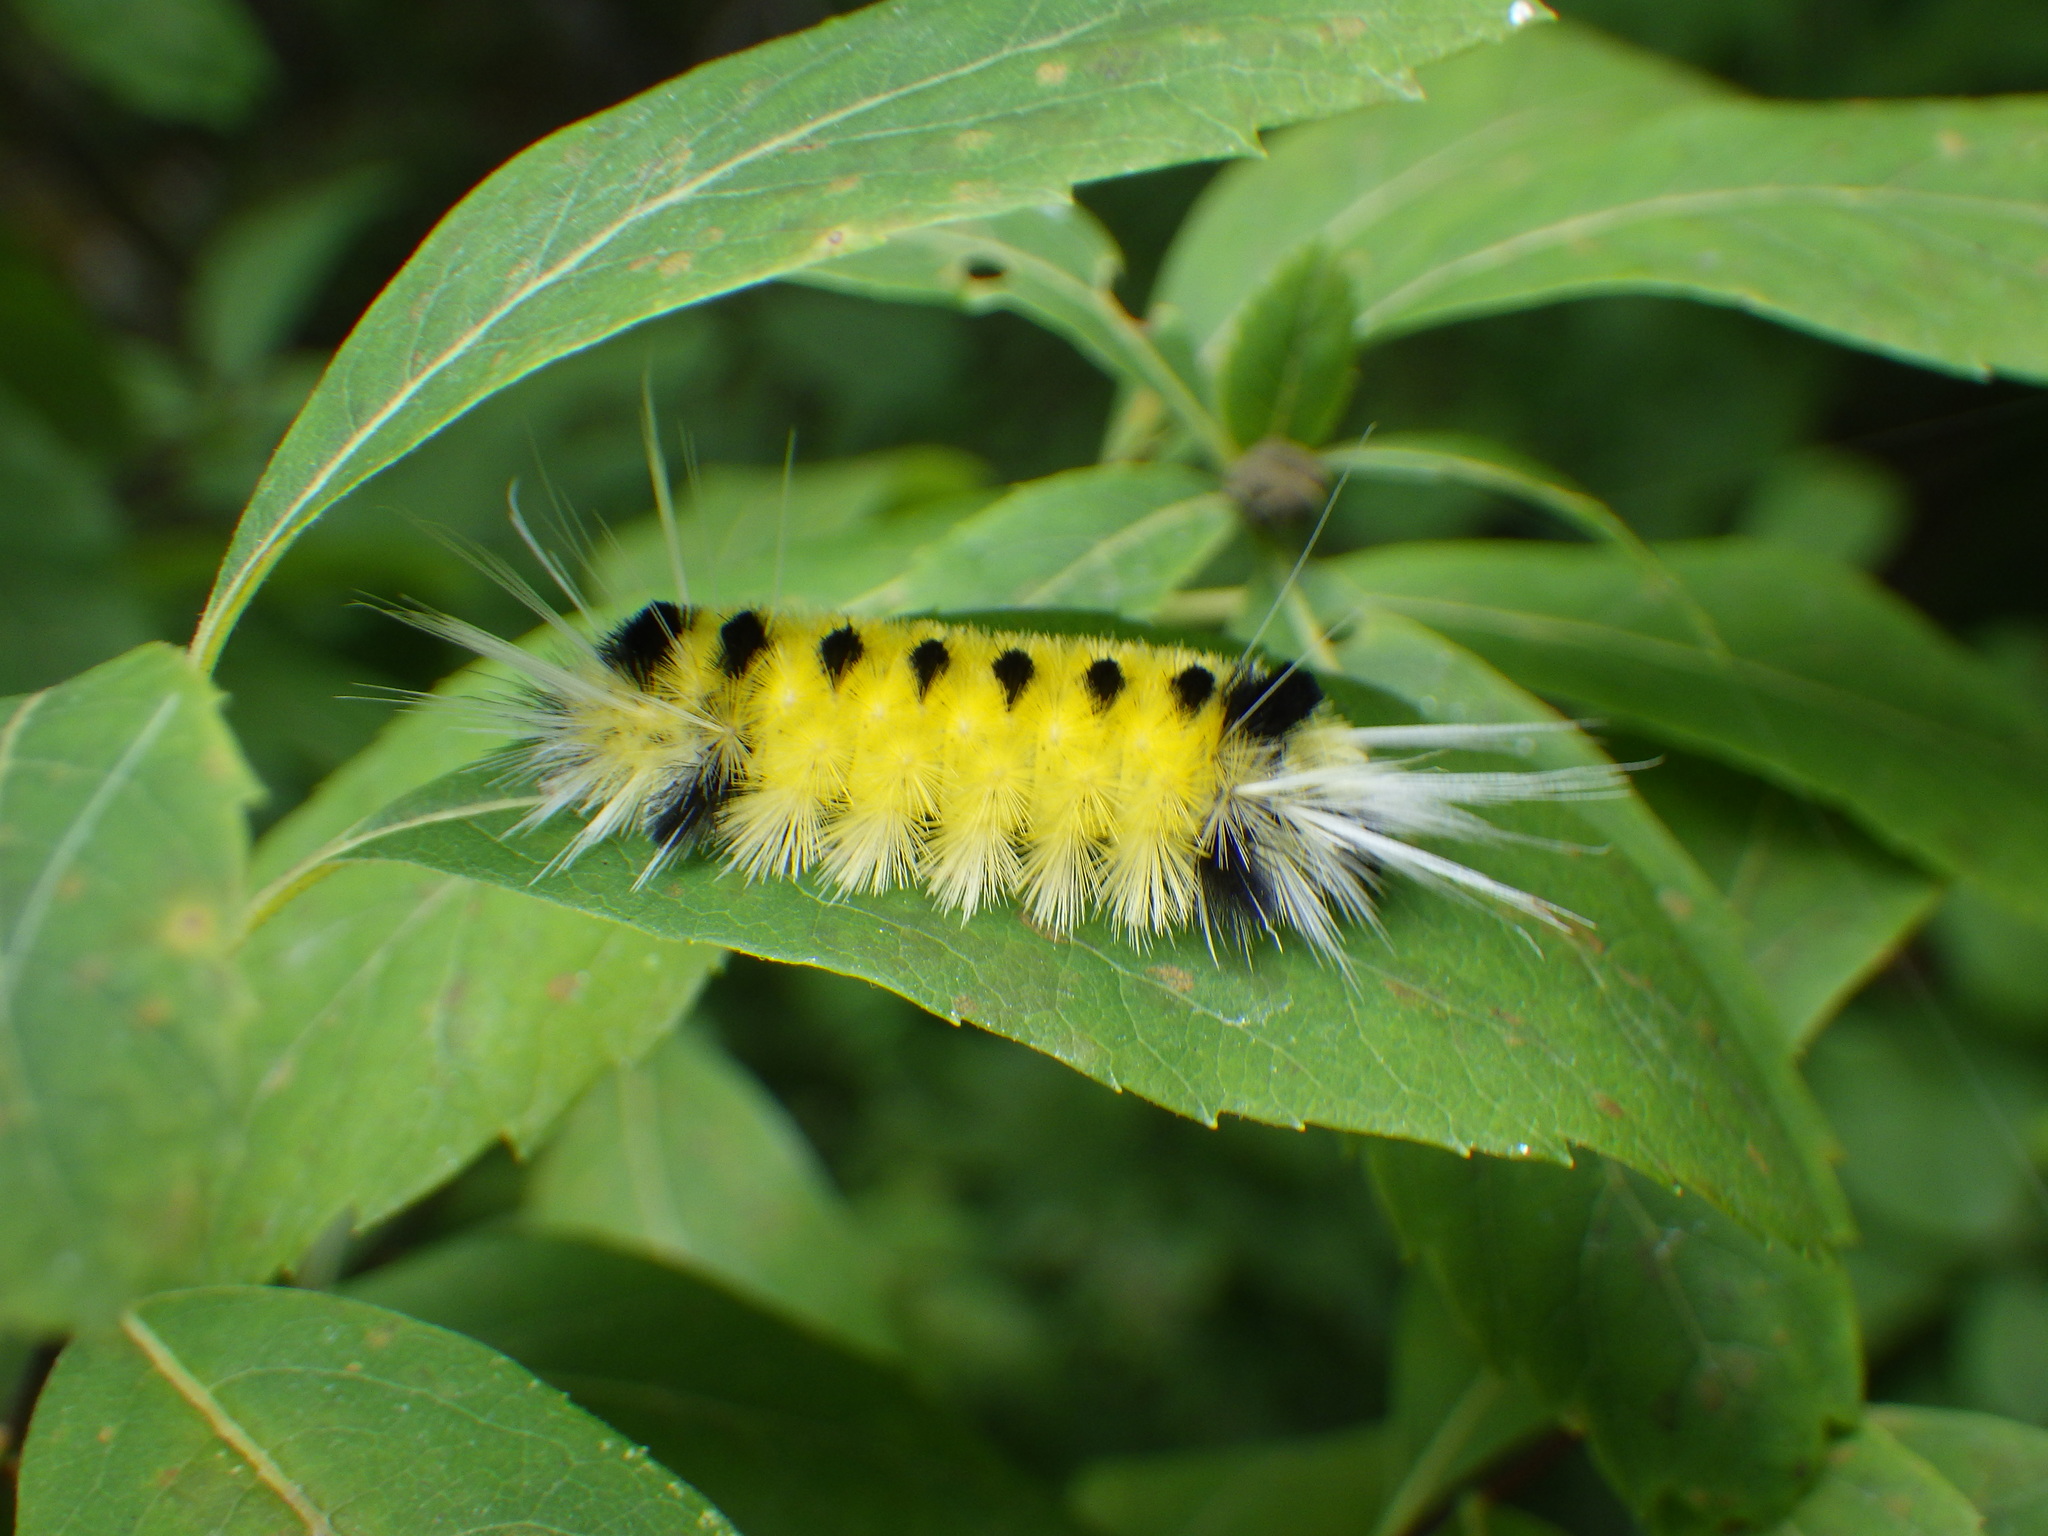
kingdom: Animalia
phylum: Arthropoda
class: Insecta
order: Lepidoptera
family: Erebidae
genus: Lophocampa
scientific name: Lophocampa maculata
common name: Spotted tussock moth
